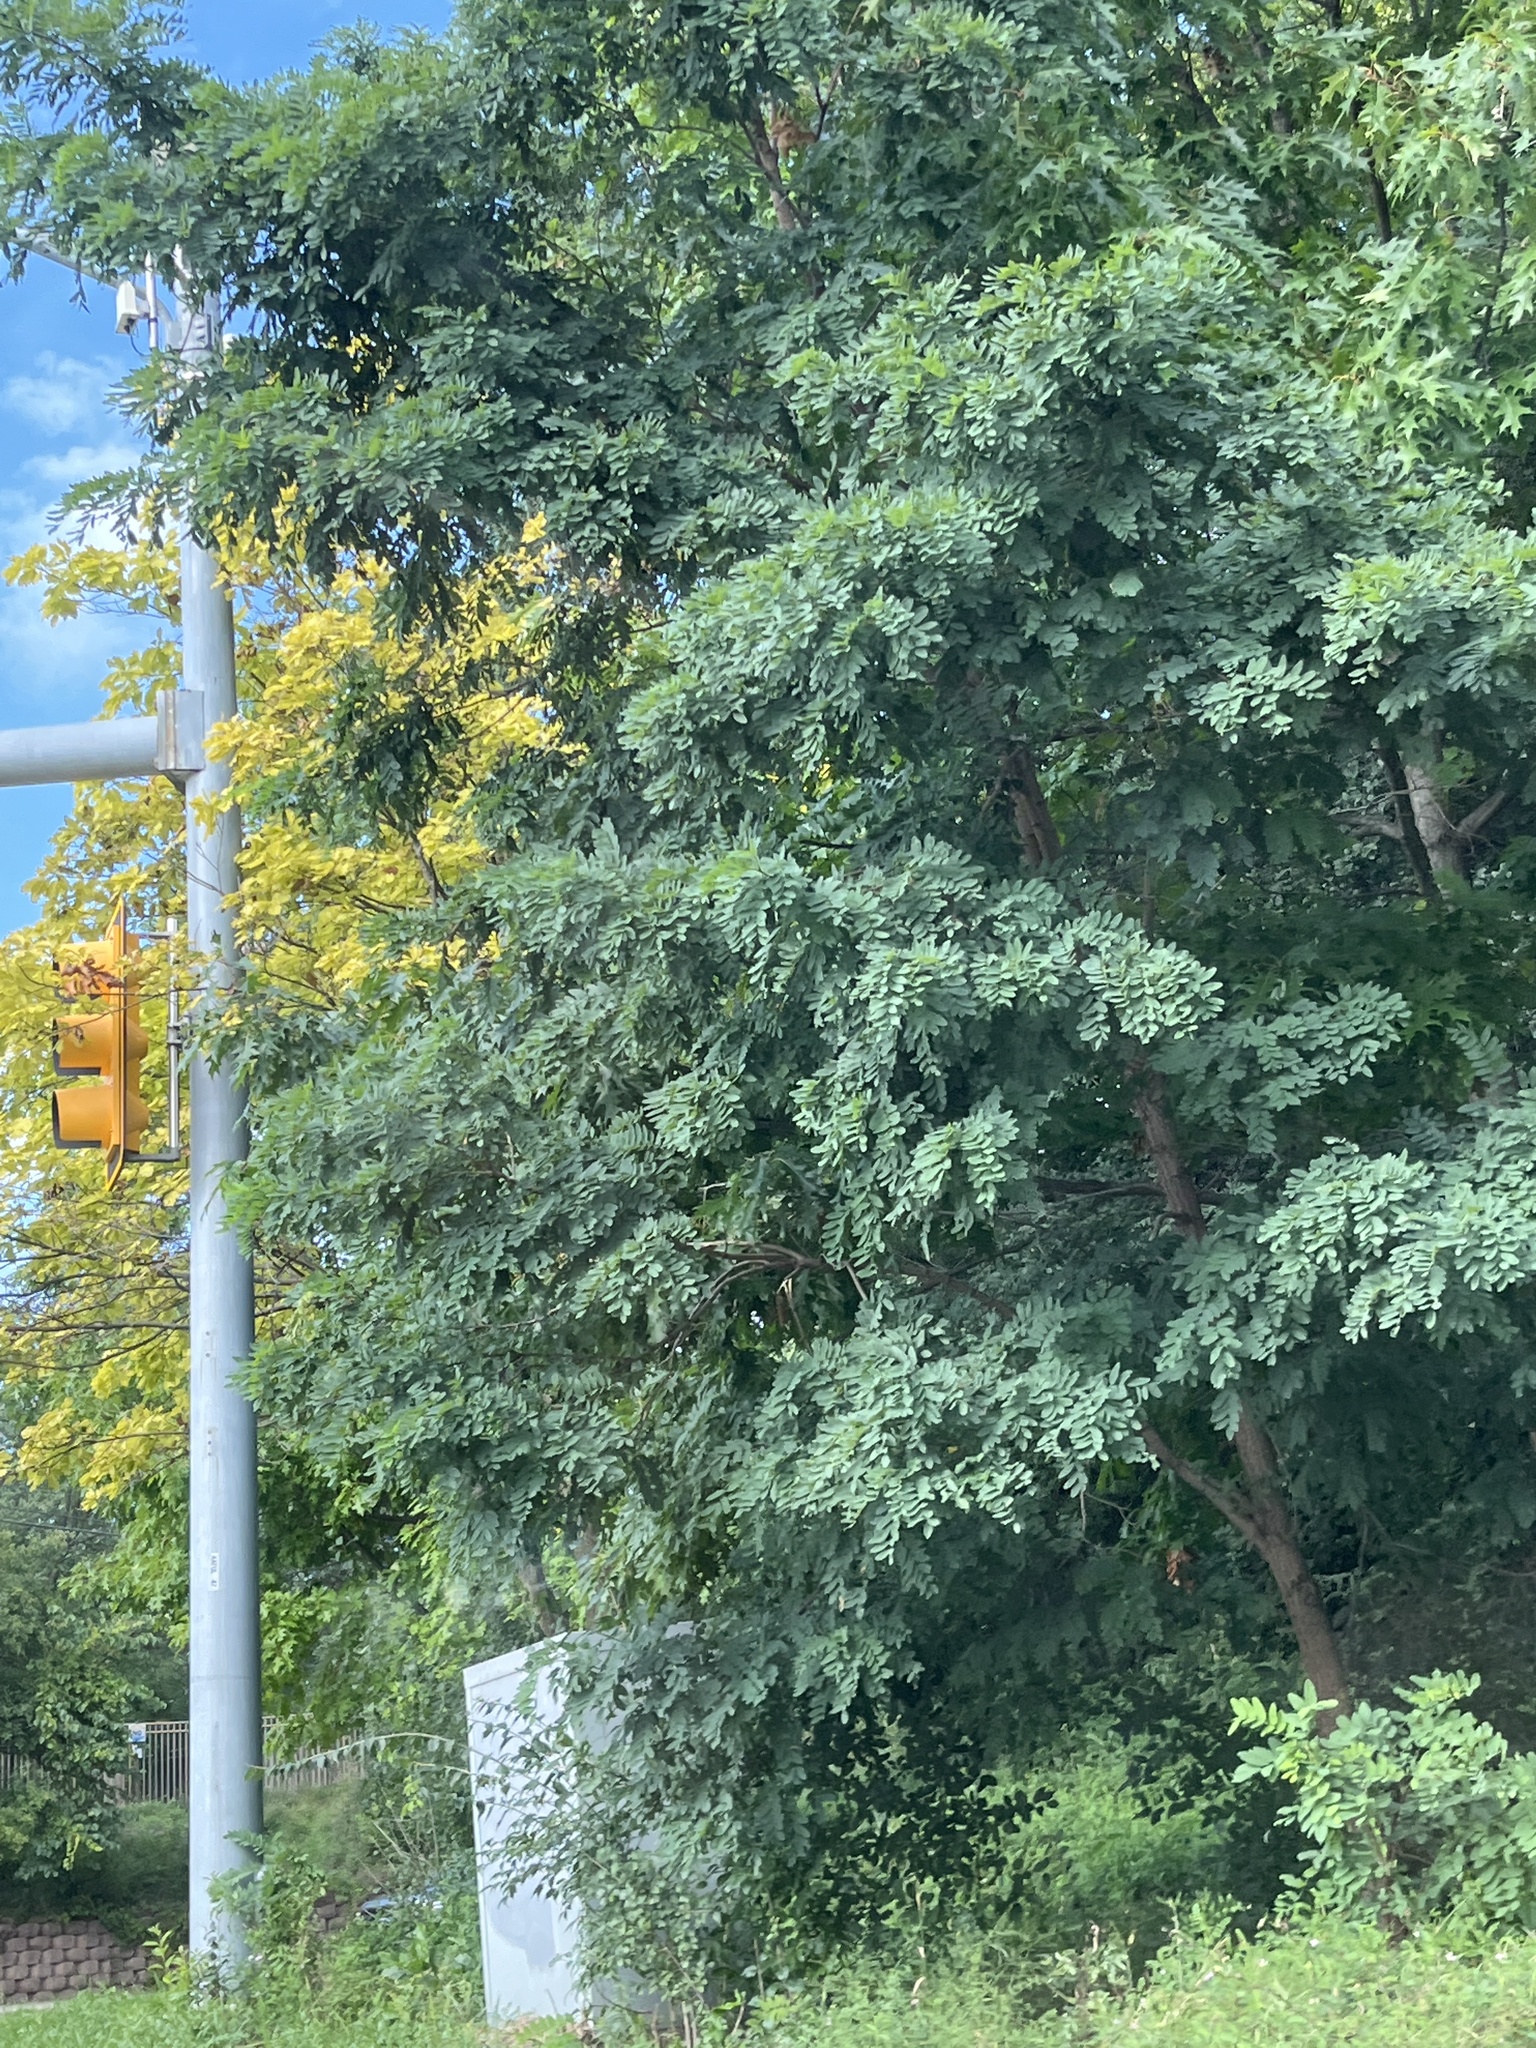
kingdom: Plantae
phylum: Tracheophyta
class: Magnoliopsida
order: Fabales
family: Fabaceae
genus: Robinia
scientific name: Robinia pseudoacacia
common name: Black locust
